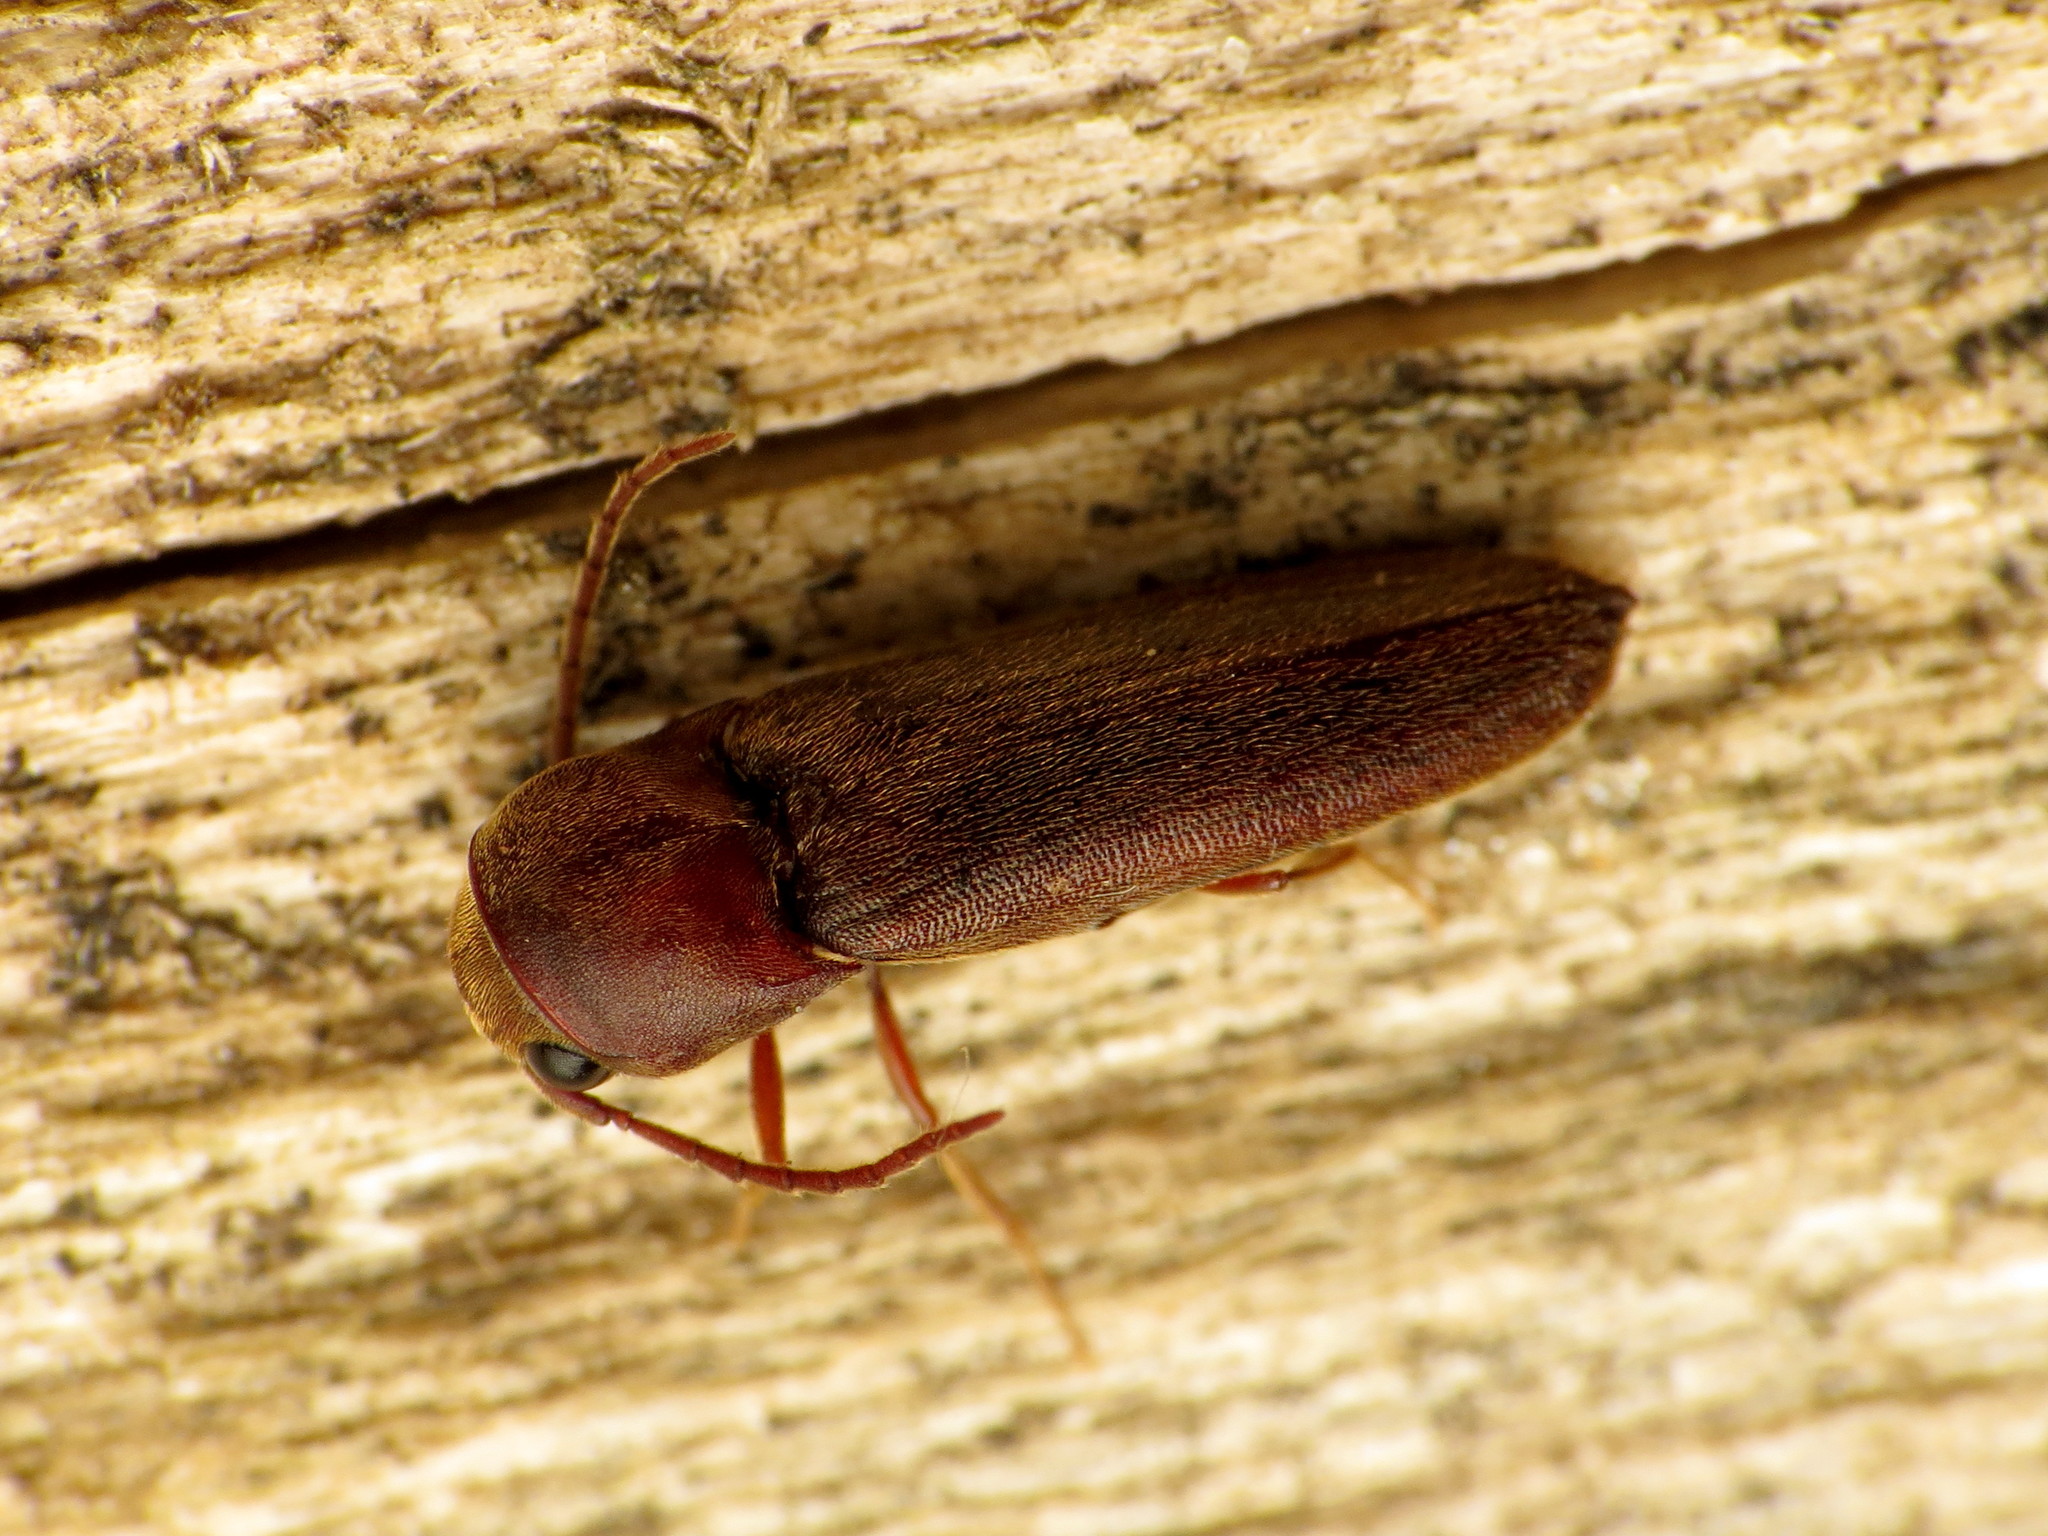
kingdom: Animalia
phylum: Arthropoda
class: Insecta
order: Coleoptera
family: Eucnemidae
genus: Dirrhagofarsus
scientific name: Dirrhagofarsus lewisi
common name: False click beetle
